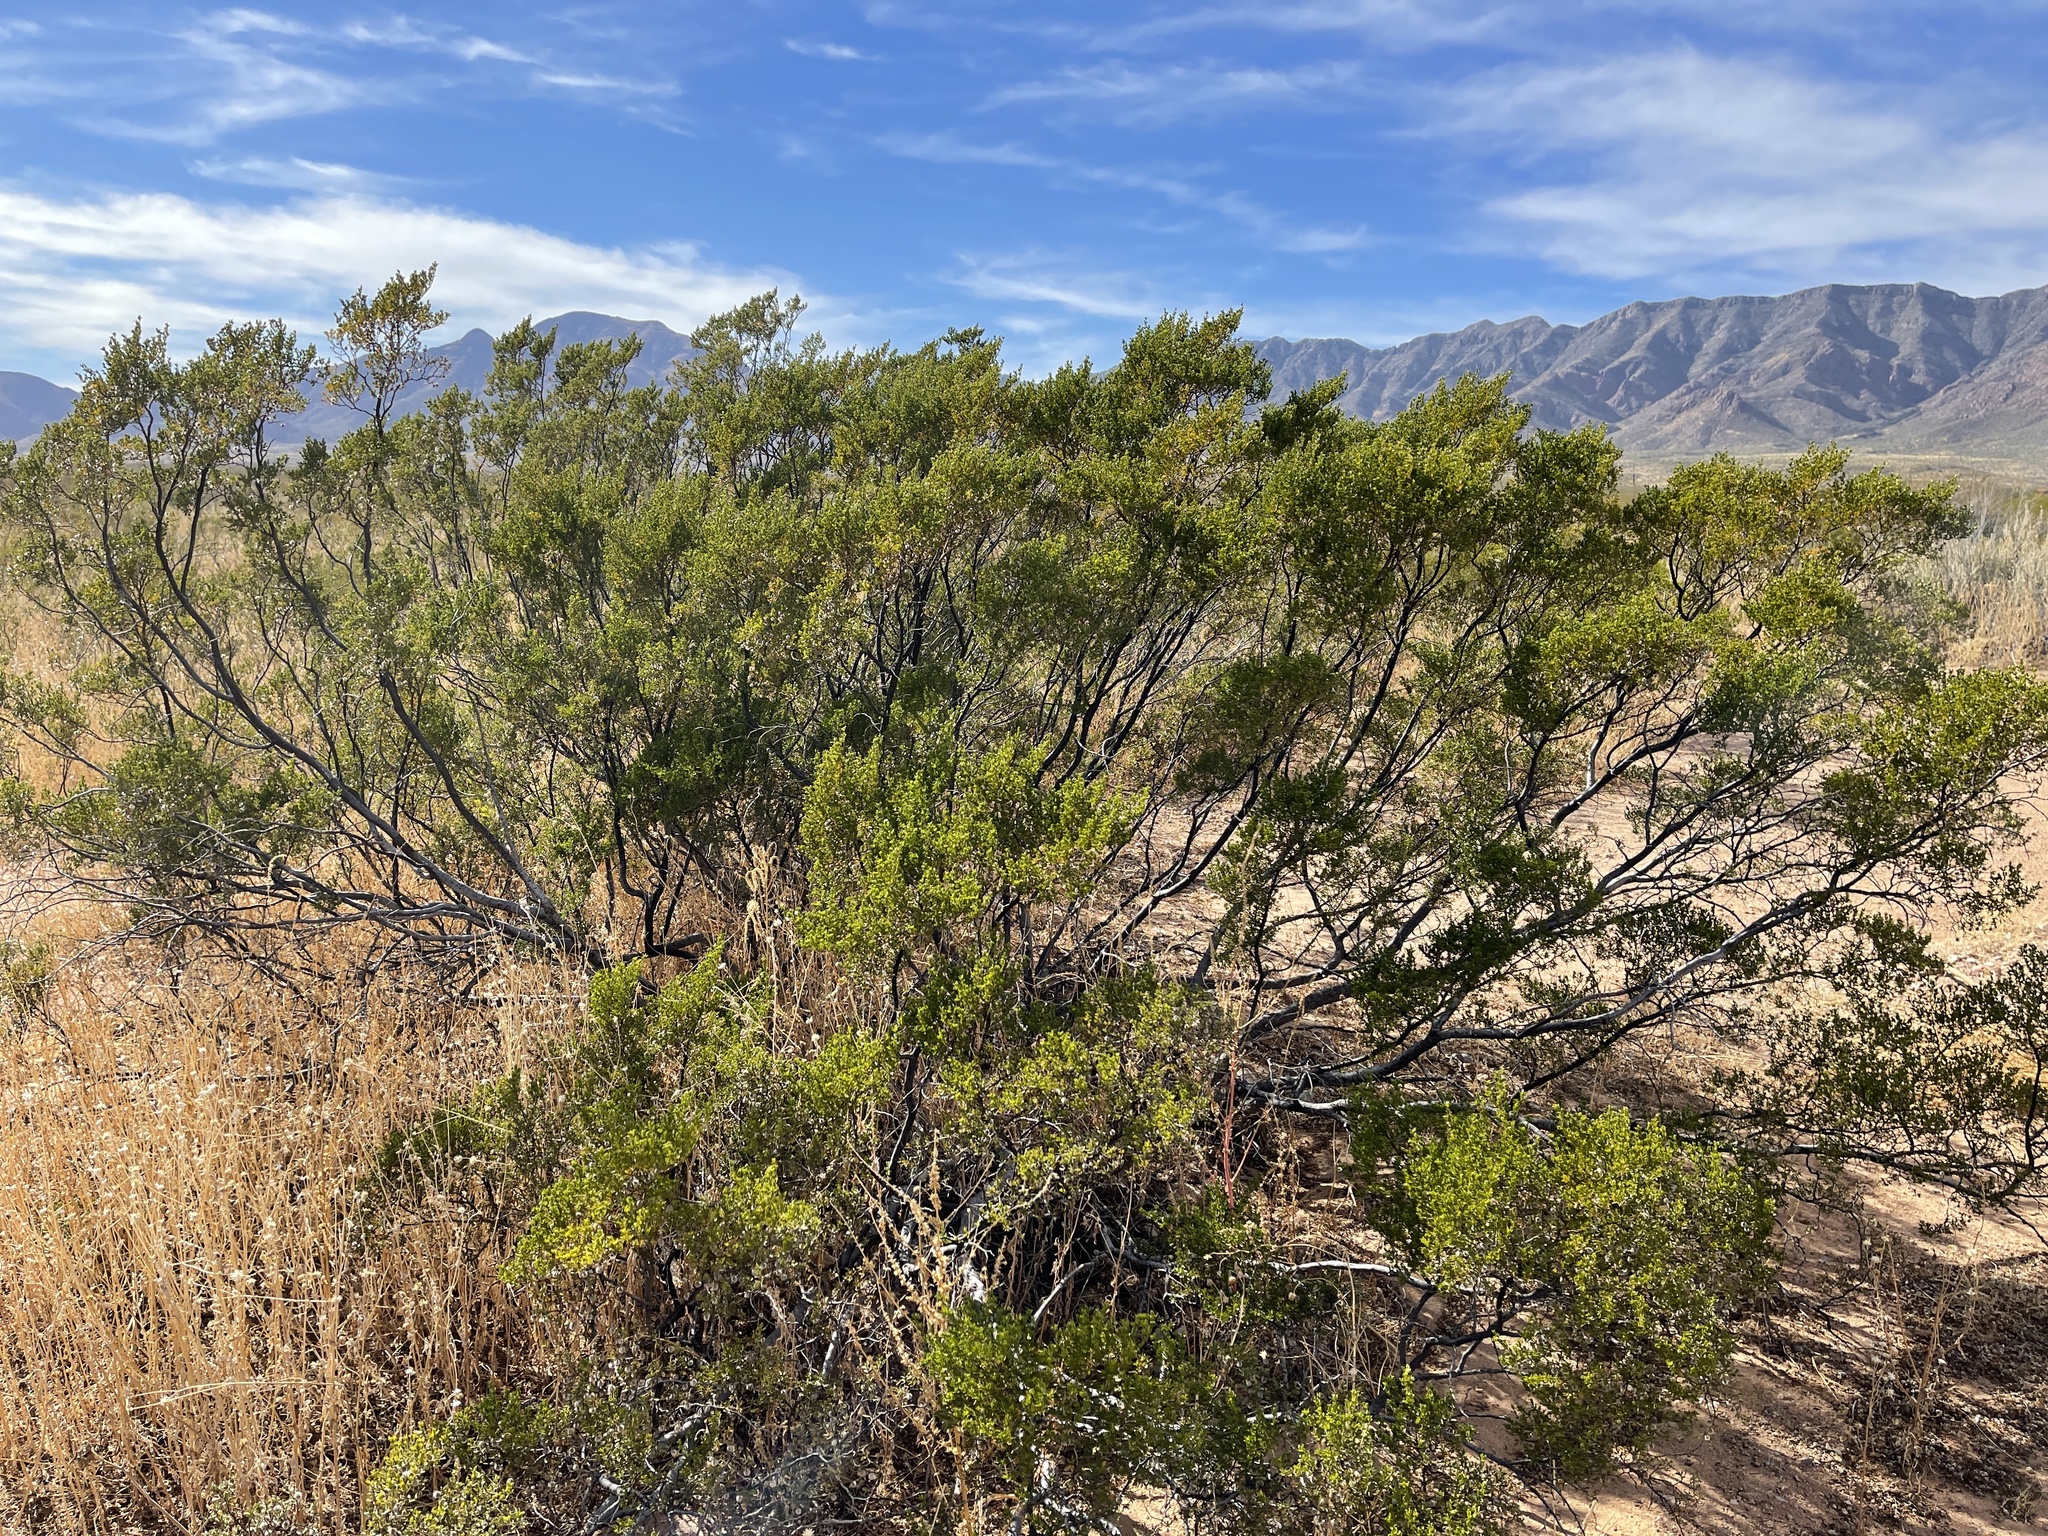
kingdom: Plantae
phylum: Tracheophyta
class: Magnoliopsida
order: Zygophyllales
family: Zygophyllaceae
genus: Larrea
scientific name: Larrea tridentata
